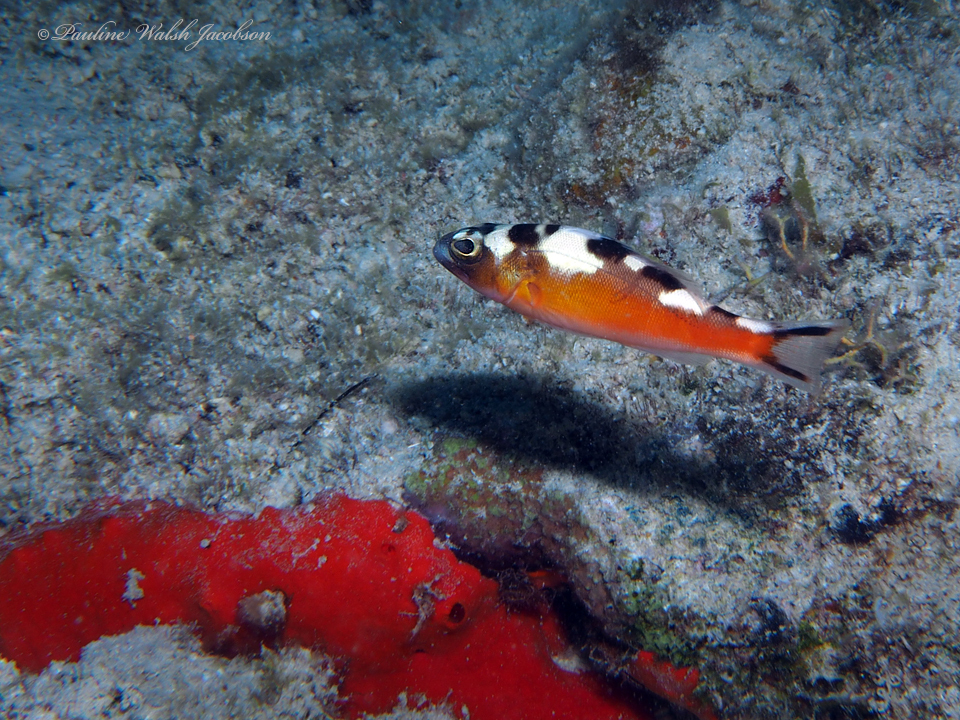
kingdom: Animalia
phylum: Chordata
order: Perciformes
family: Serranidae
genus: Serranus
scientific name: Serranus tabacarius
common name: Tobaccofish
